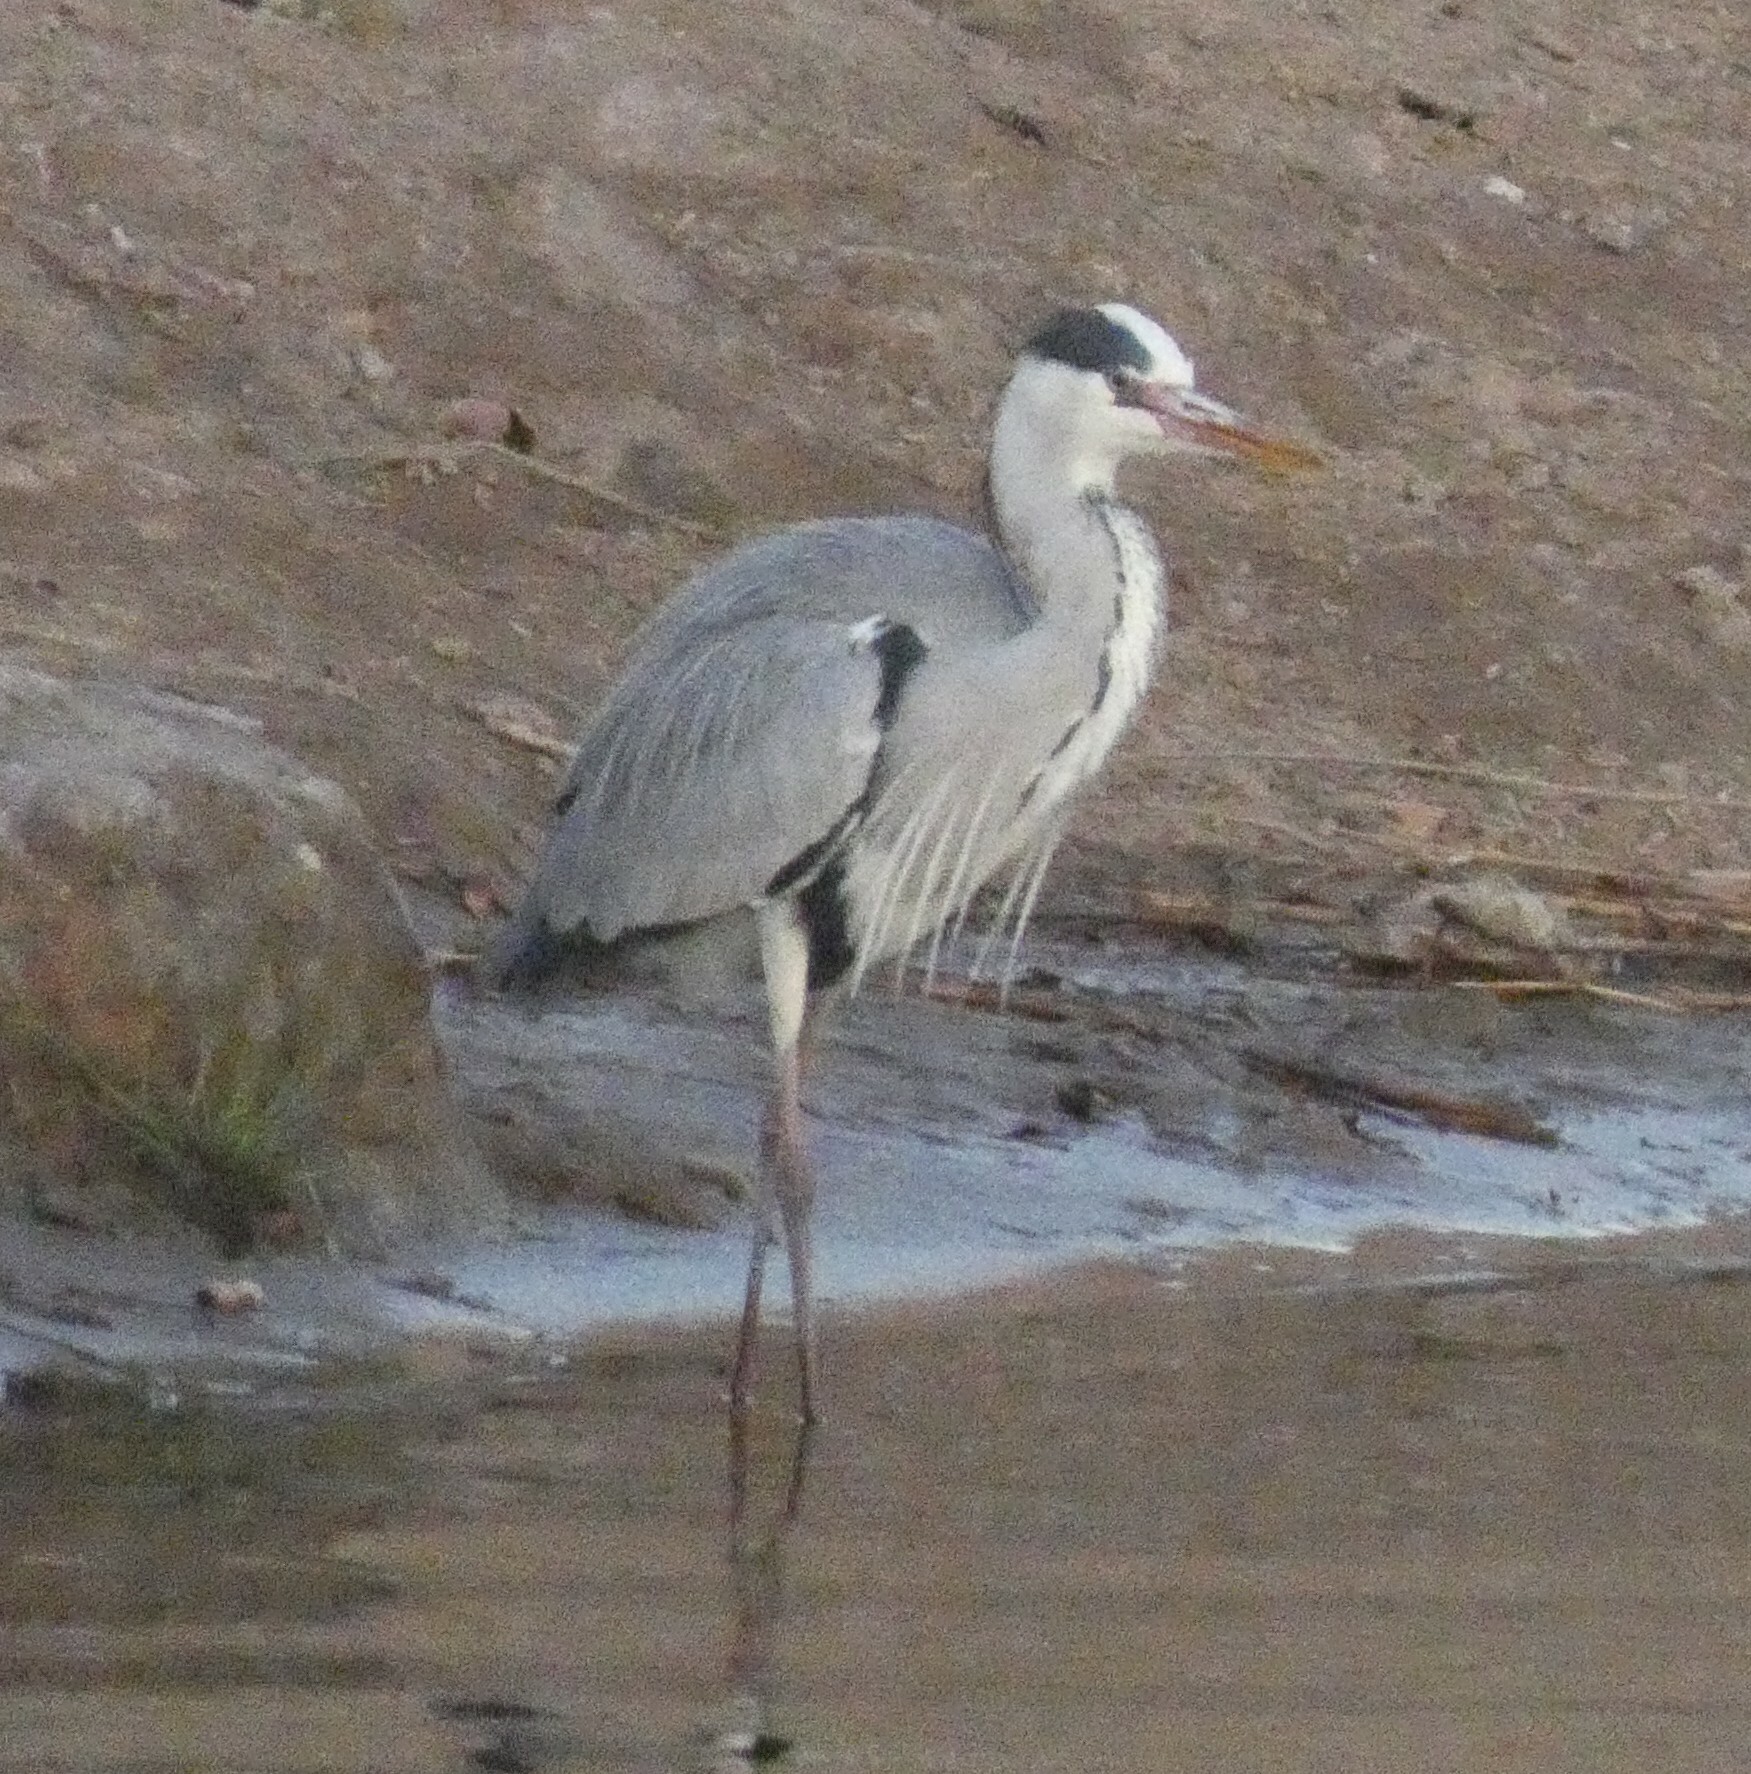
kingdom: Animalia
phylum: Chordata
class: Aves
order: Pelecaniformes
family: Ardeidae
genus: Ardea
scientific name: Ardea cinerea
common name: Grey heron
